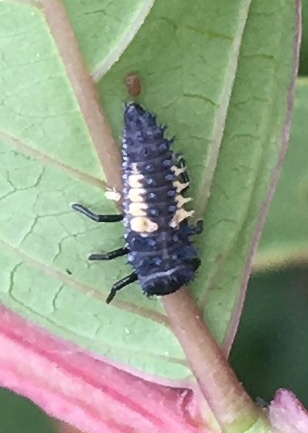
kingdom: Animalia
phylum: Arthropoda
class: Insecta
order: Coleoptera
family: Coccinellidae
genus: Harmonia
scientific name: Harmonia axyridis
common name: Harlequin ladybird
